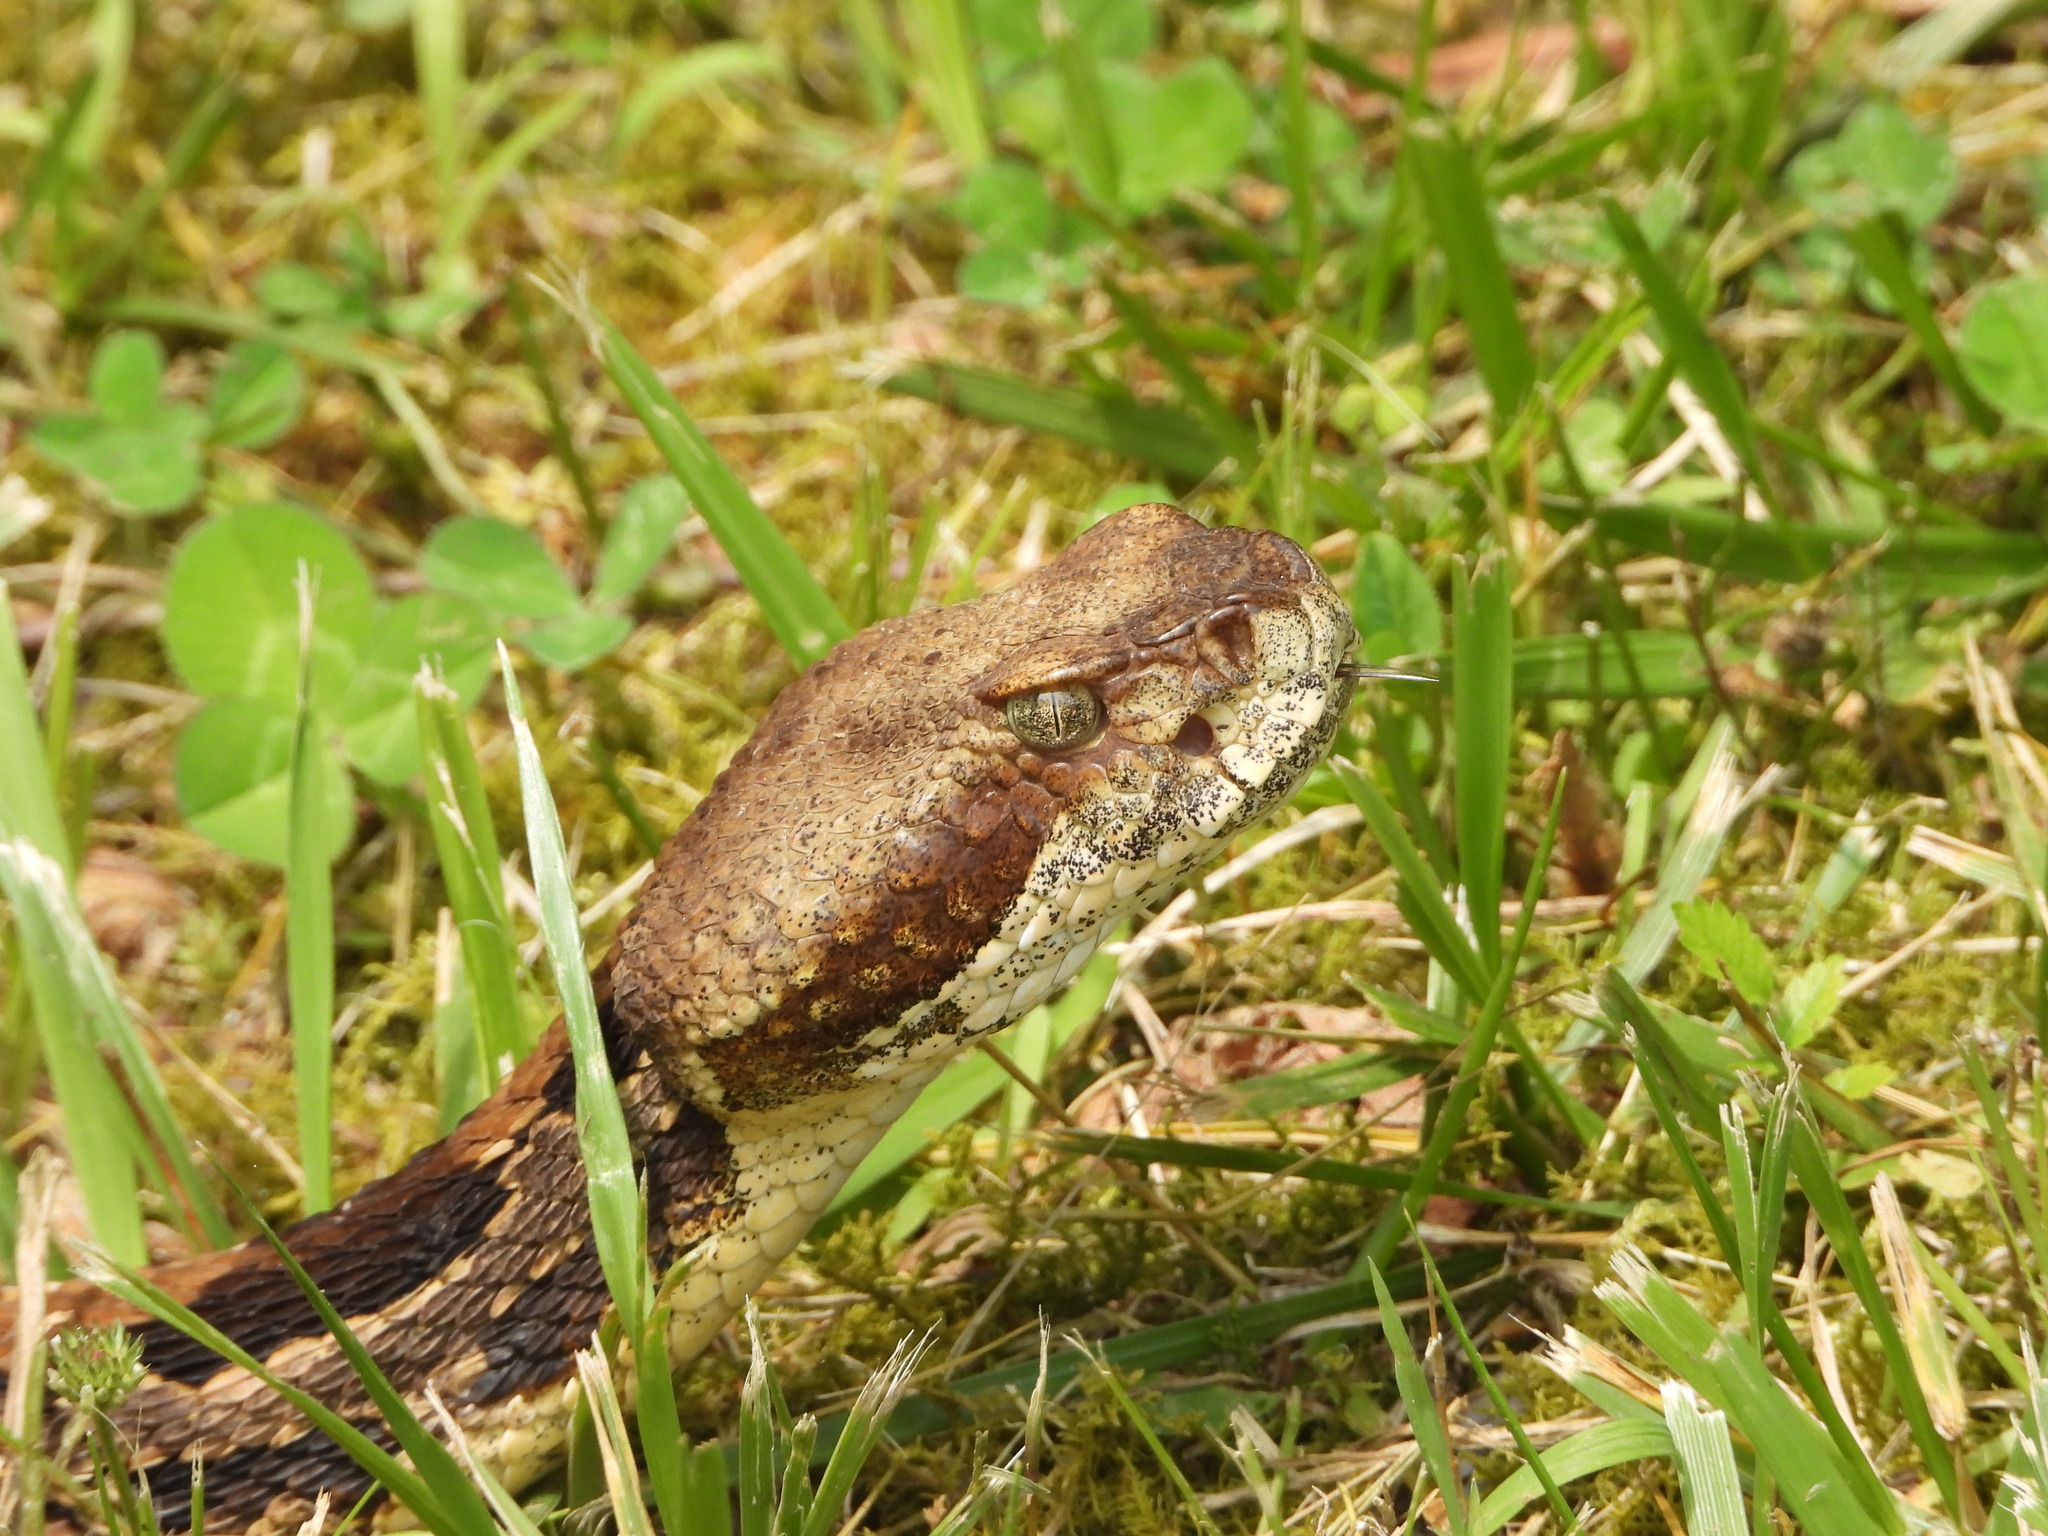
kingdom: Animalia
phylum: Chordata
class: Squamata
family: Viperidae
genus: Crotalus
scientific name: Crotalus horridus
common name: Timber rattlesnake
